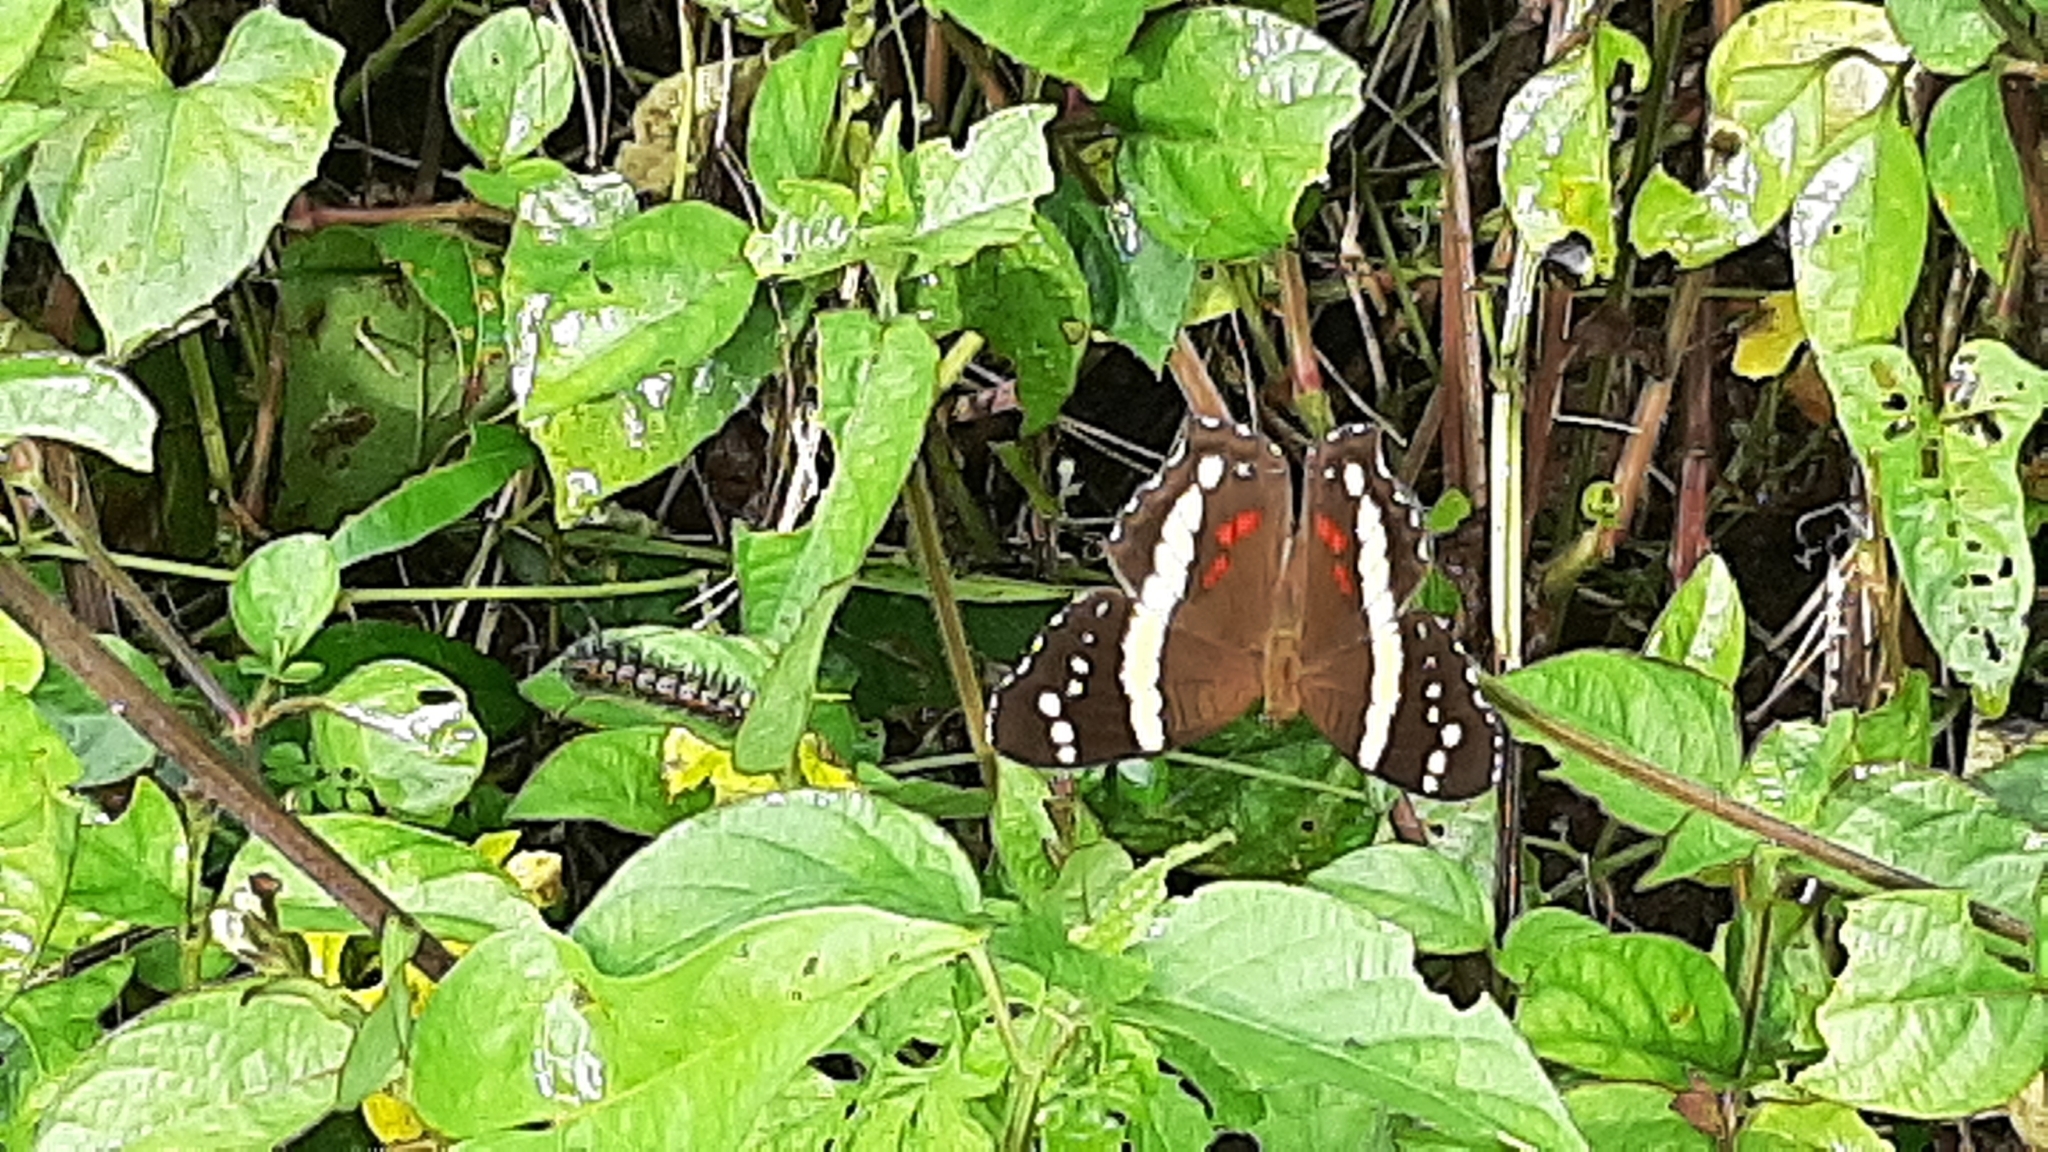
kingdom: Animalia
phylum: Arthropoda
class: Insecta
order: Lepidoptera
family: Nymphalidae
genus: Anartia
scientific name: Anartia fatima
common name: Banded peacock
